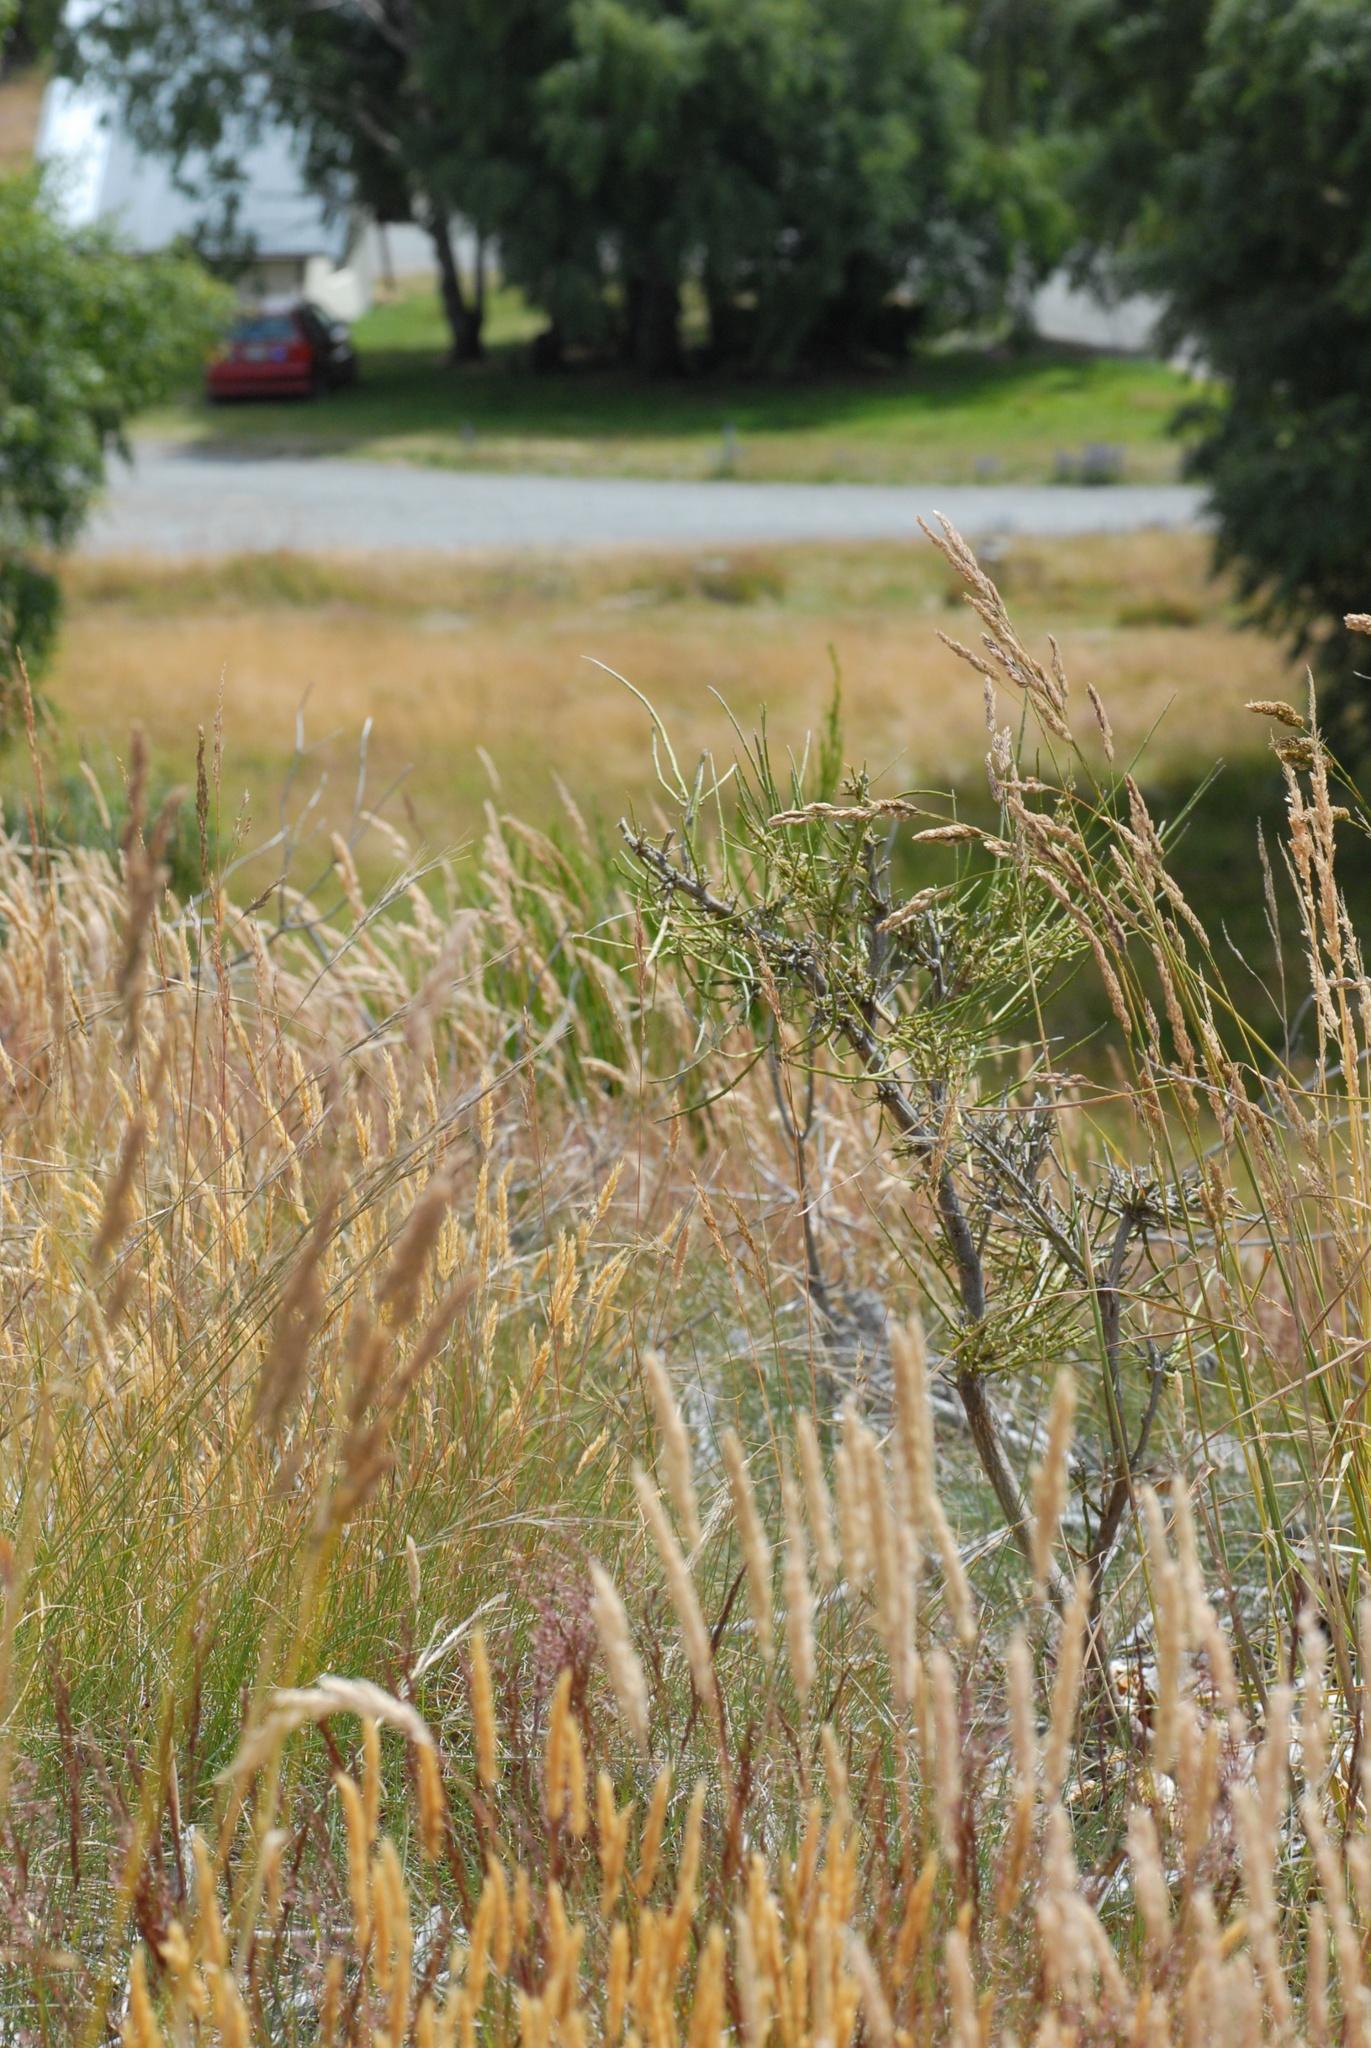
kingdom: Plantae
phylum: Tracheophyta
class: Magnoliopsida
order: Fabales
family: Fabaceae
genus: Carmichaelia
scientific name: Carmichaelia australis
